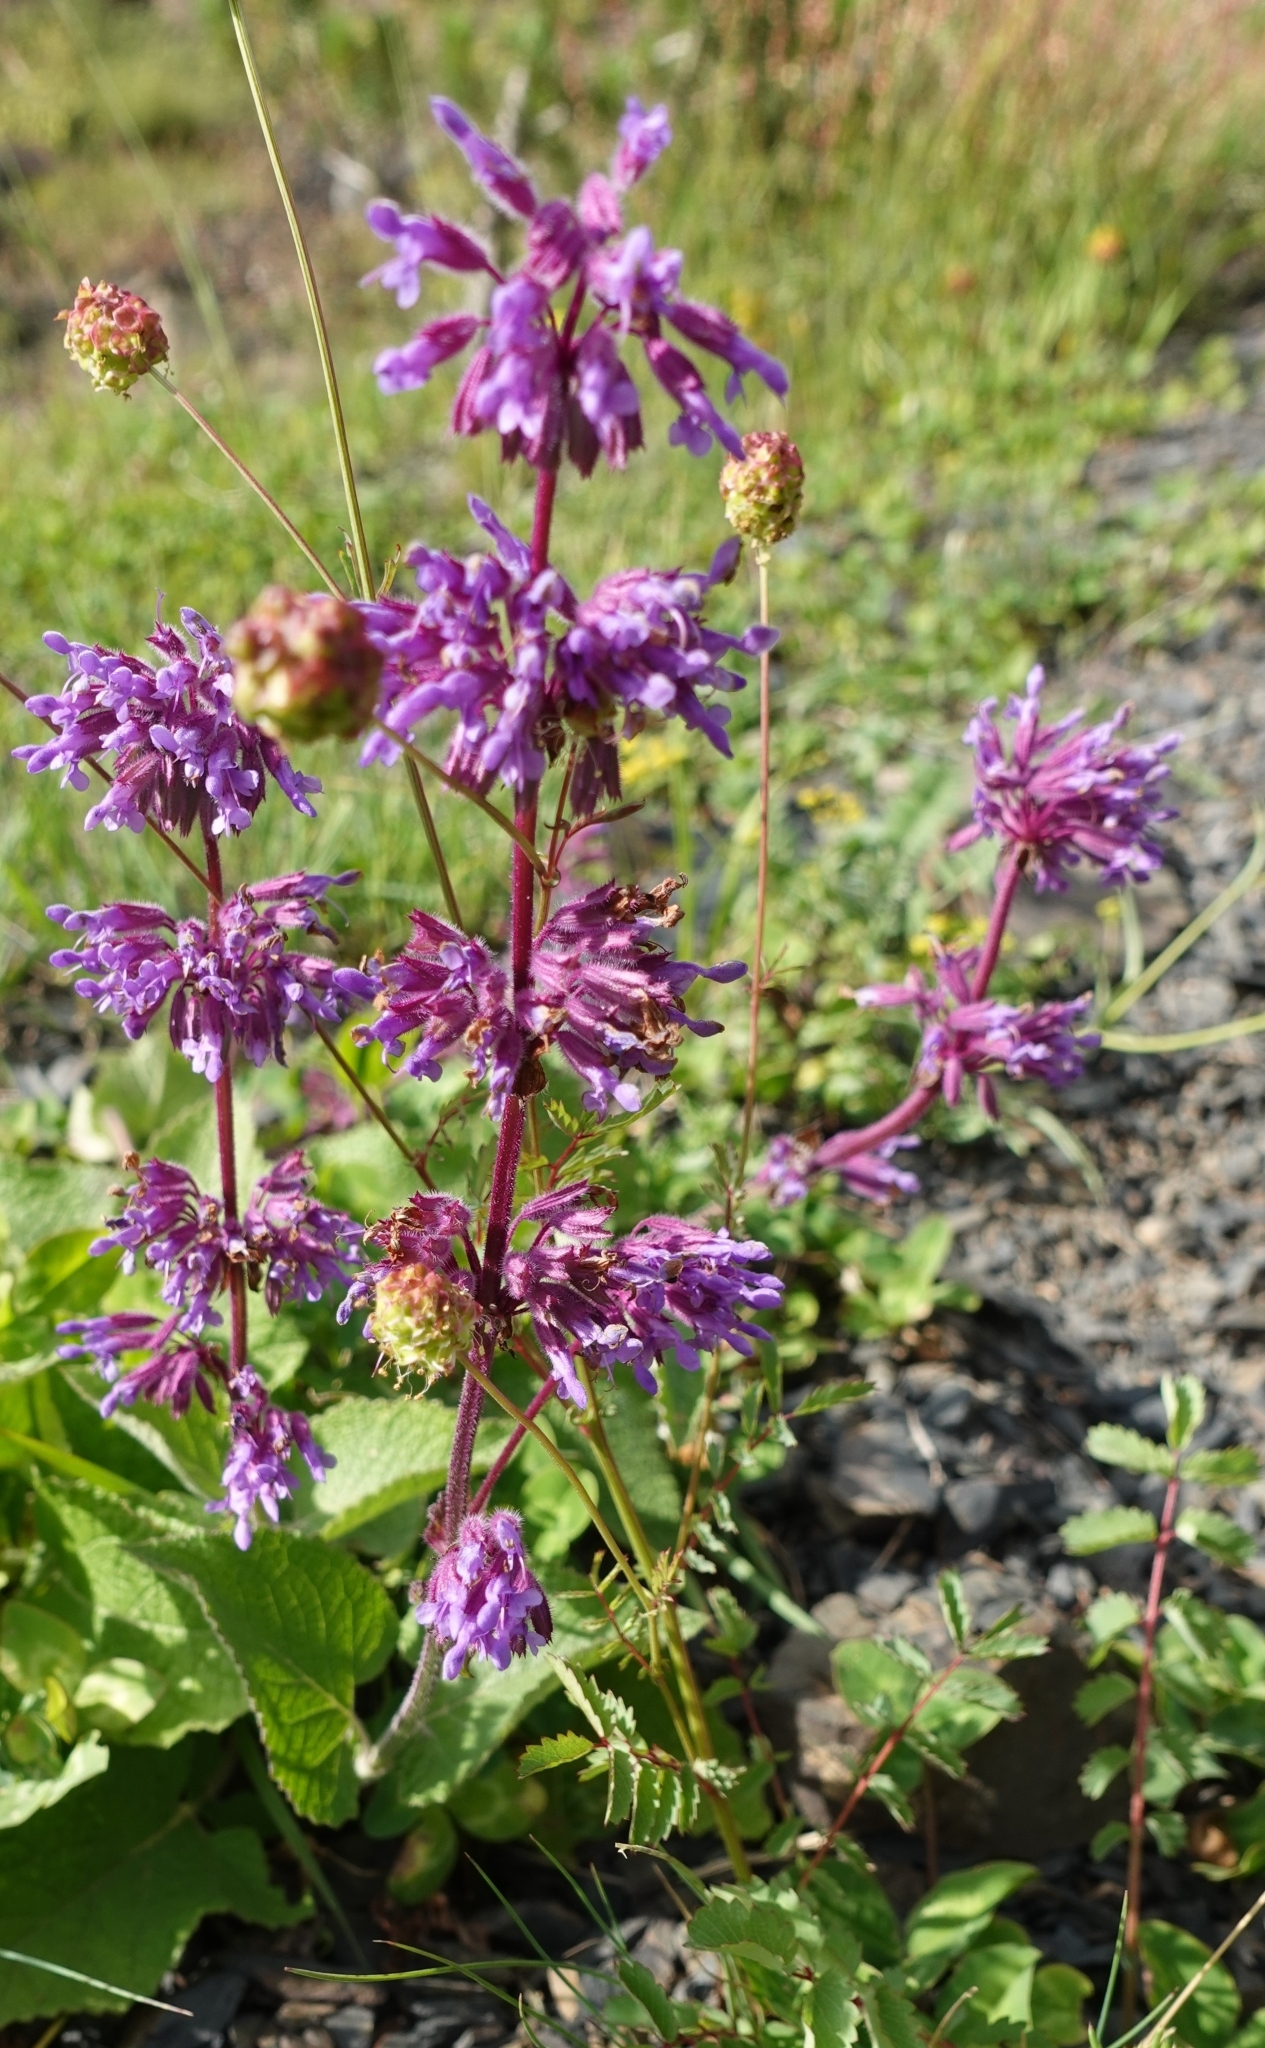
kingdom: Plantae
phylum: Tracheophyta
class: Magnoliopsida
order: Lamiales
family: Lamiaceae
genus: Salvia
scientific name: Salvia verticillata
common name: Whorled clary
